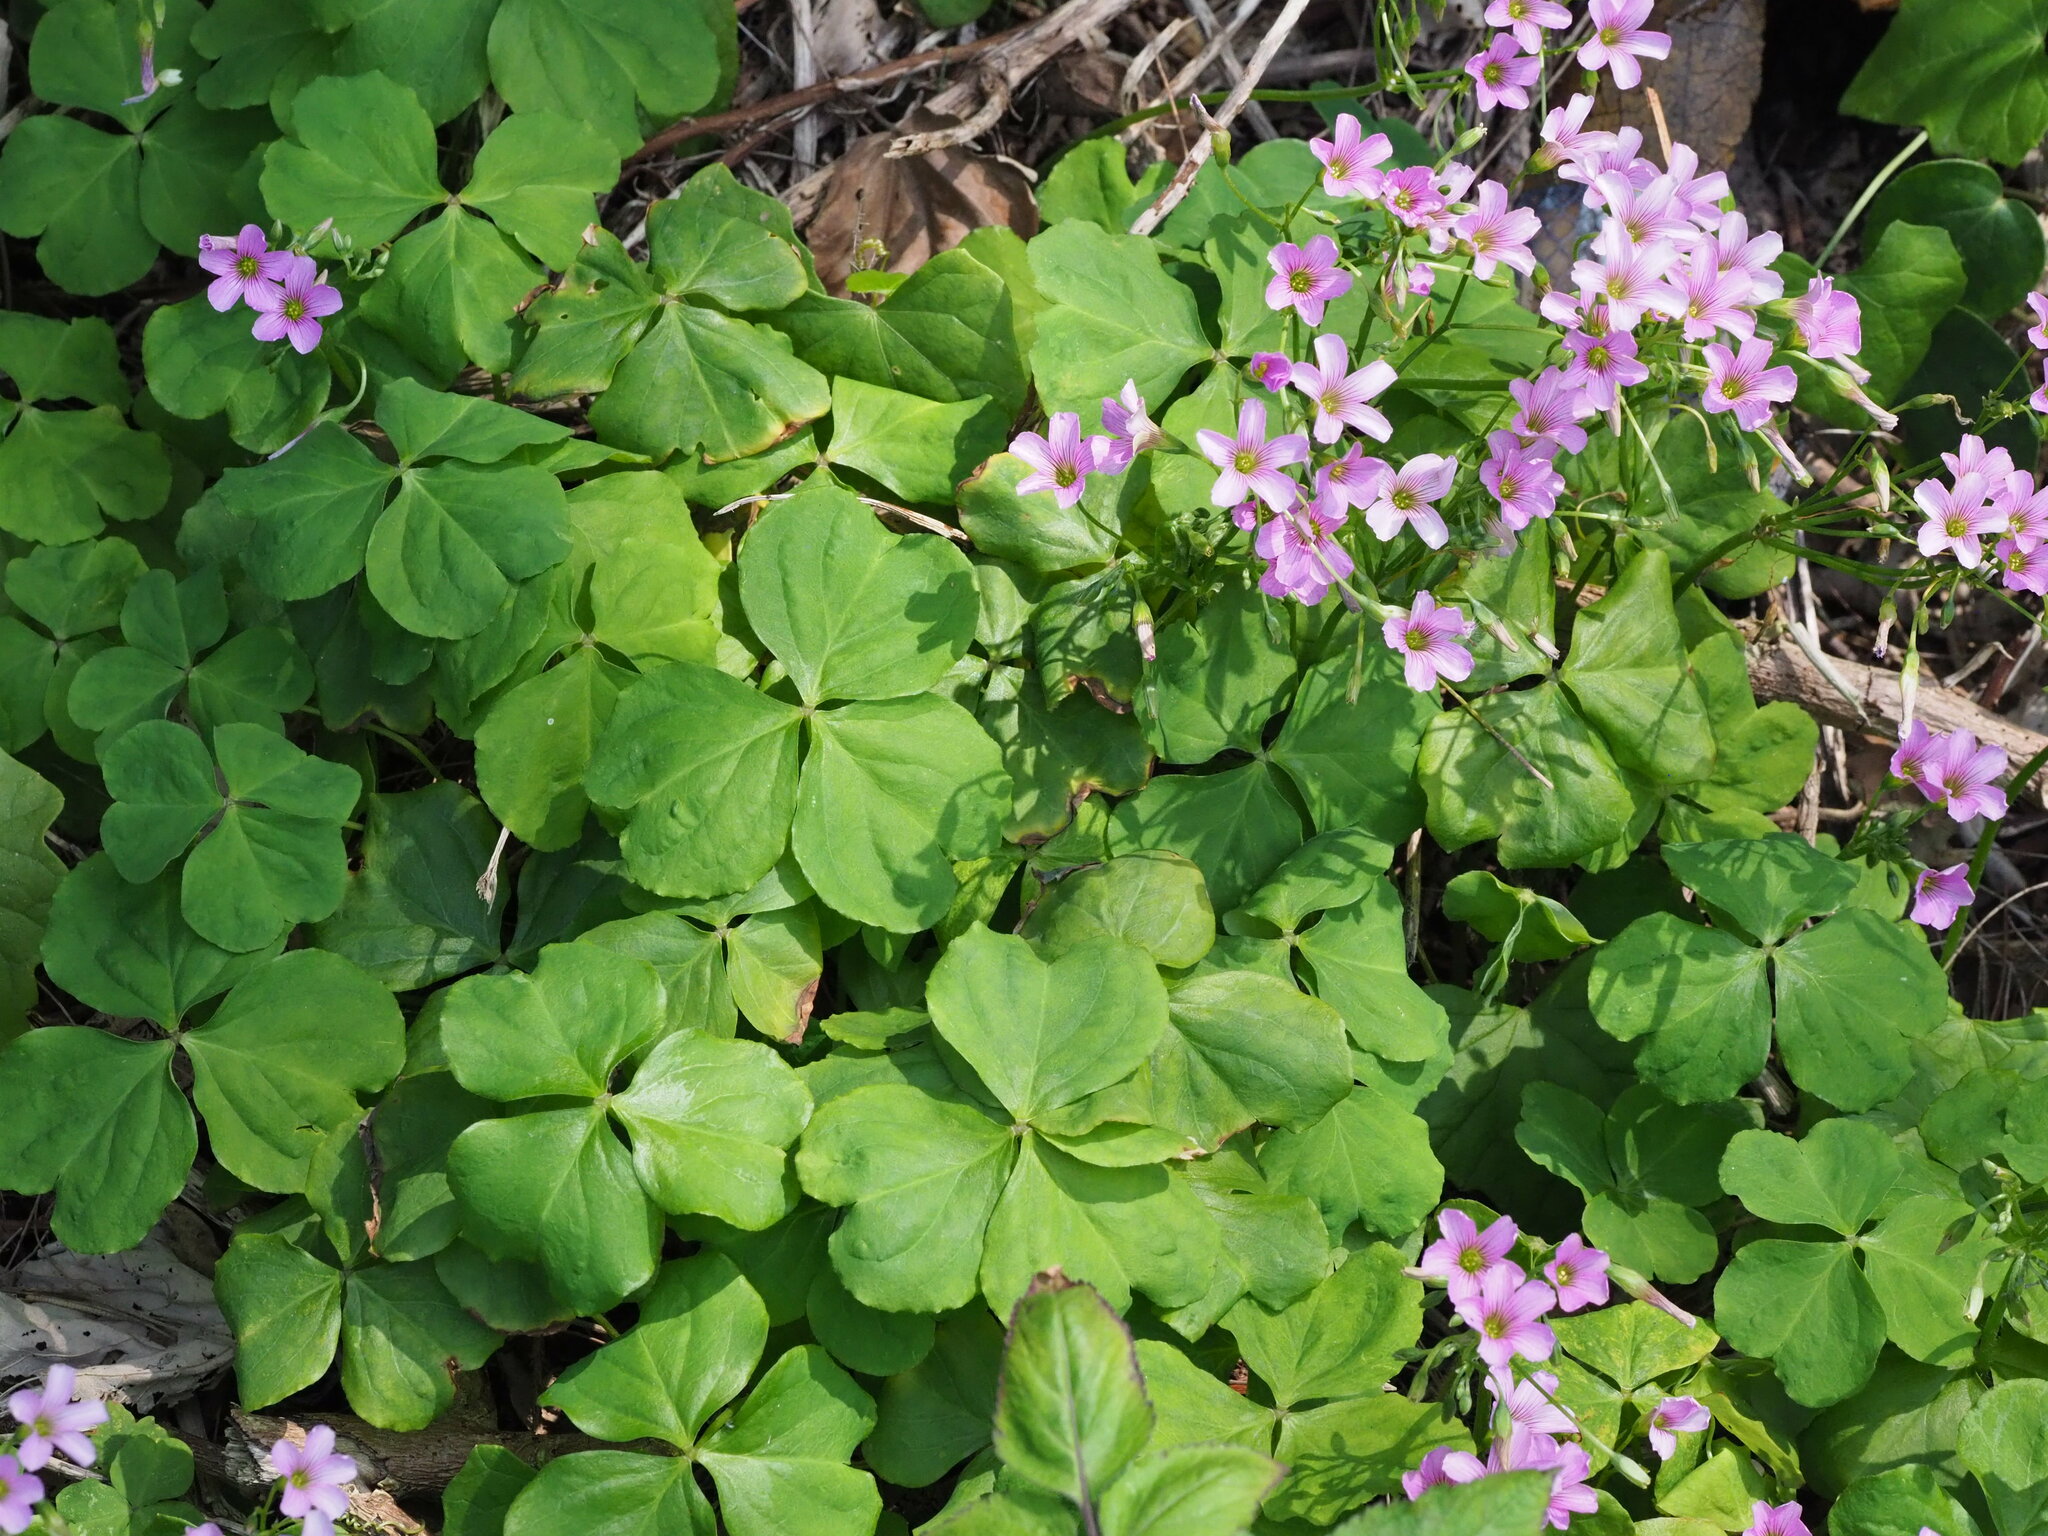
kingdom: Plantae
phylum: Tracheophyta
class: Magnoliopsida
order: Oxalidales
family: Oxalidaceae
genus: Oxalis
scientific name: Oxalis debilis
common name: Large-flowered pink-sorrel
